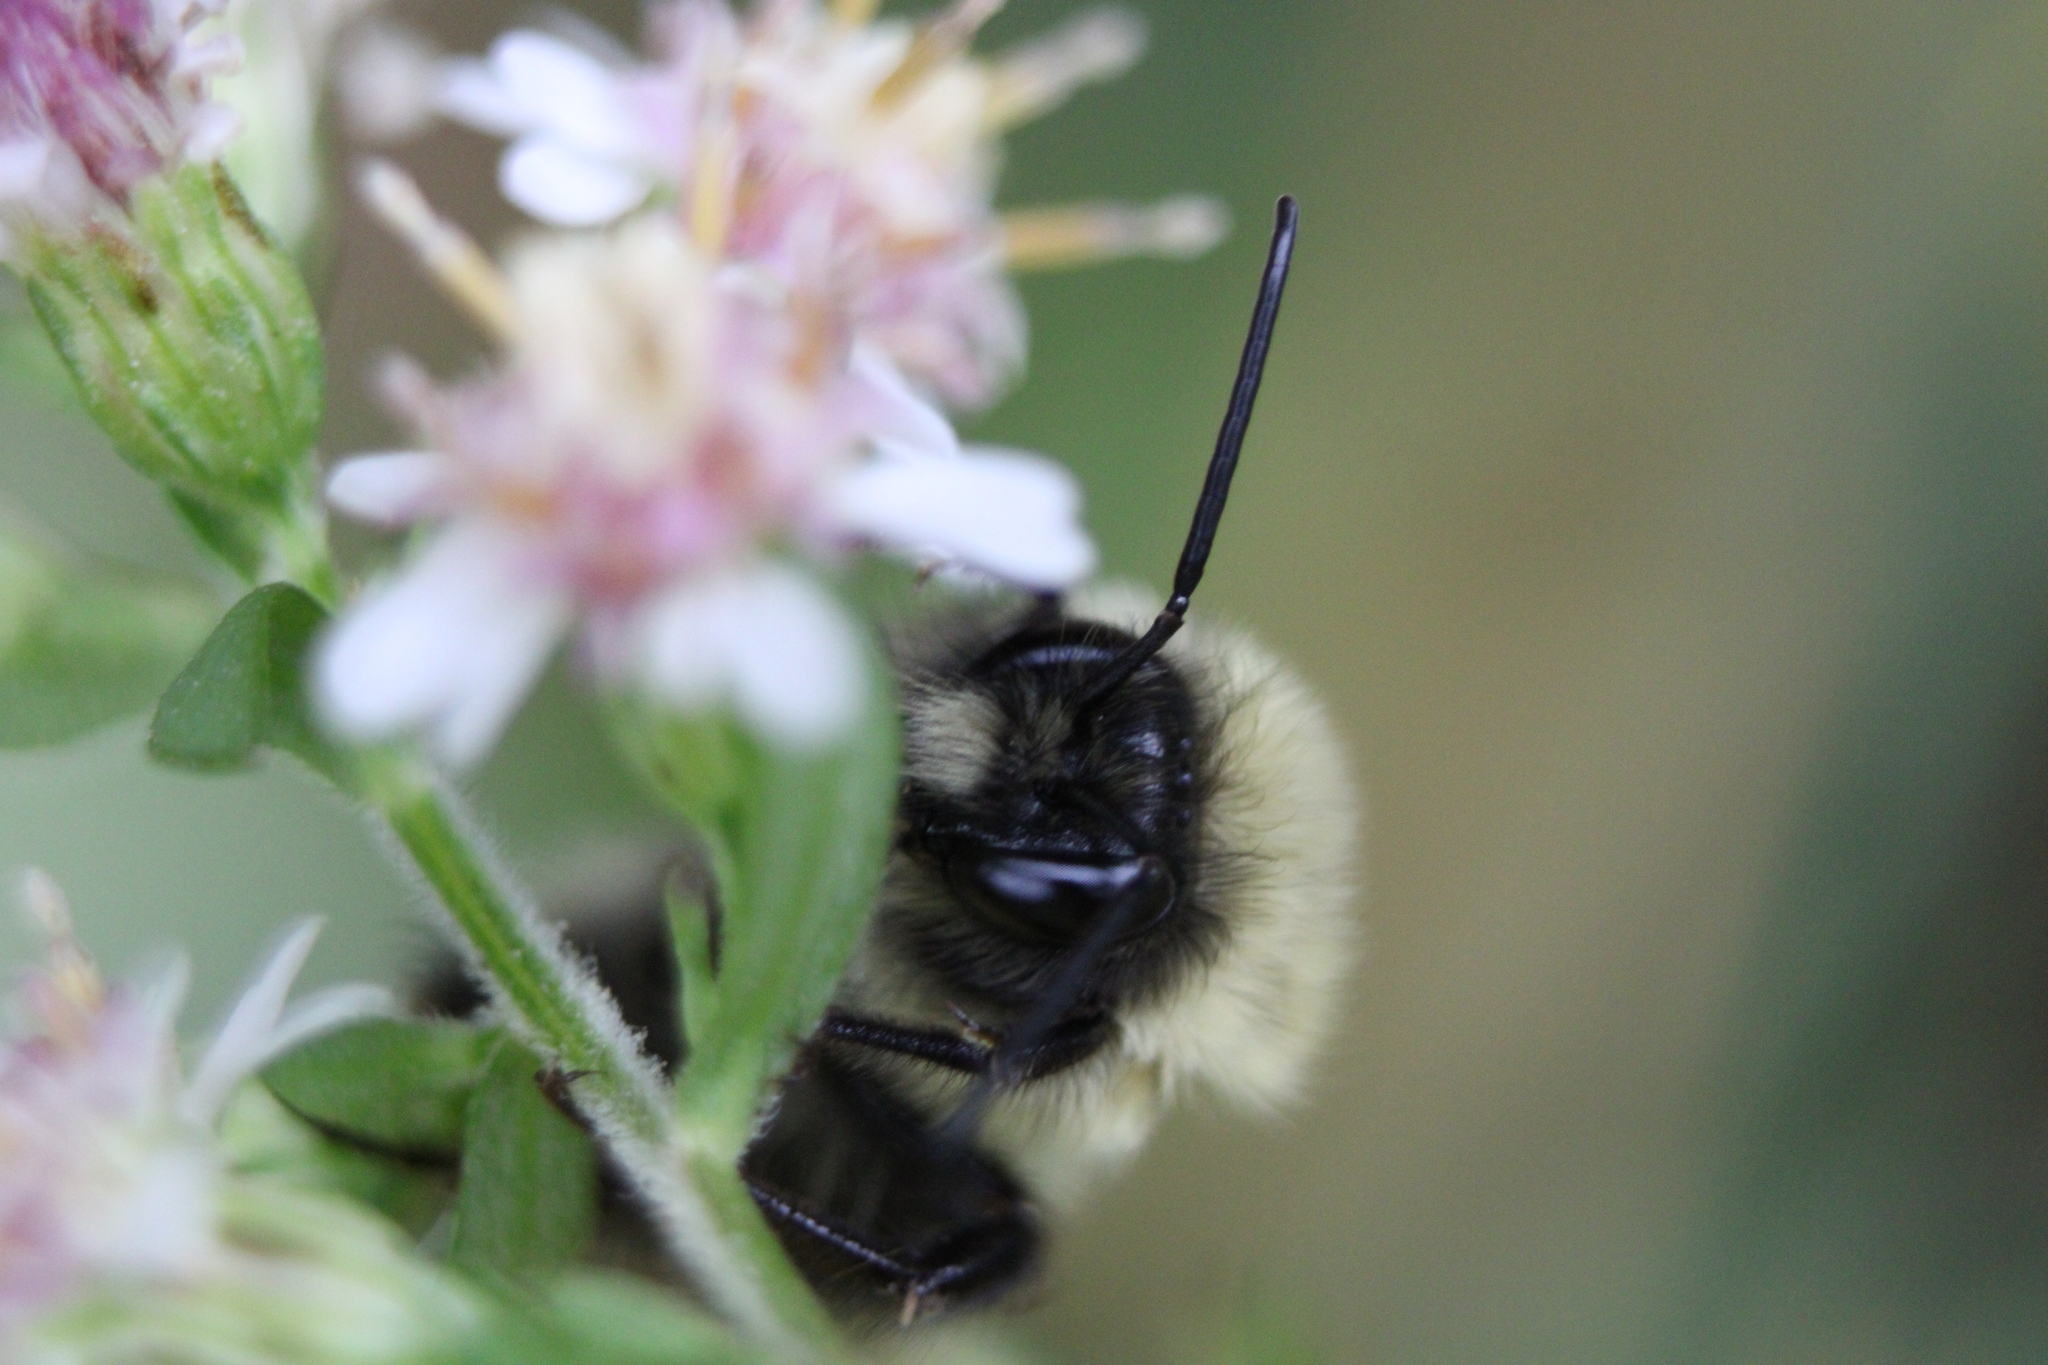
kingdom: Animalia
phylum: Arthropoda
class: Insecta
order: Hymenoptera
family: Apidae
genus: Bombus
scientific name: Bombus impatiens
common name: Common eastern bumble bee
